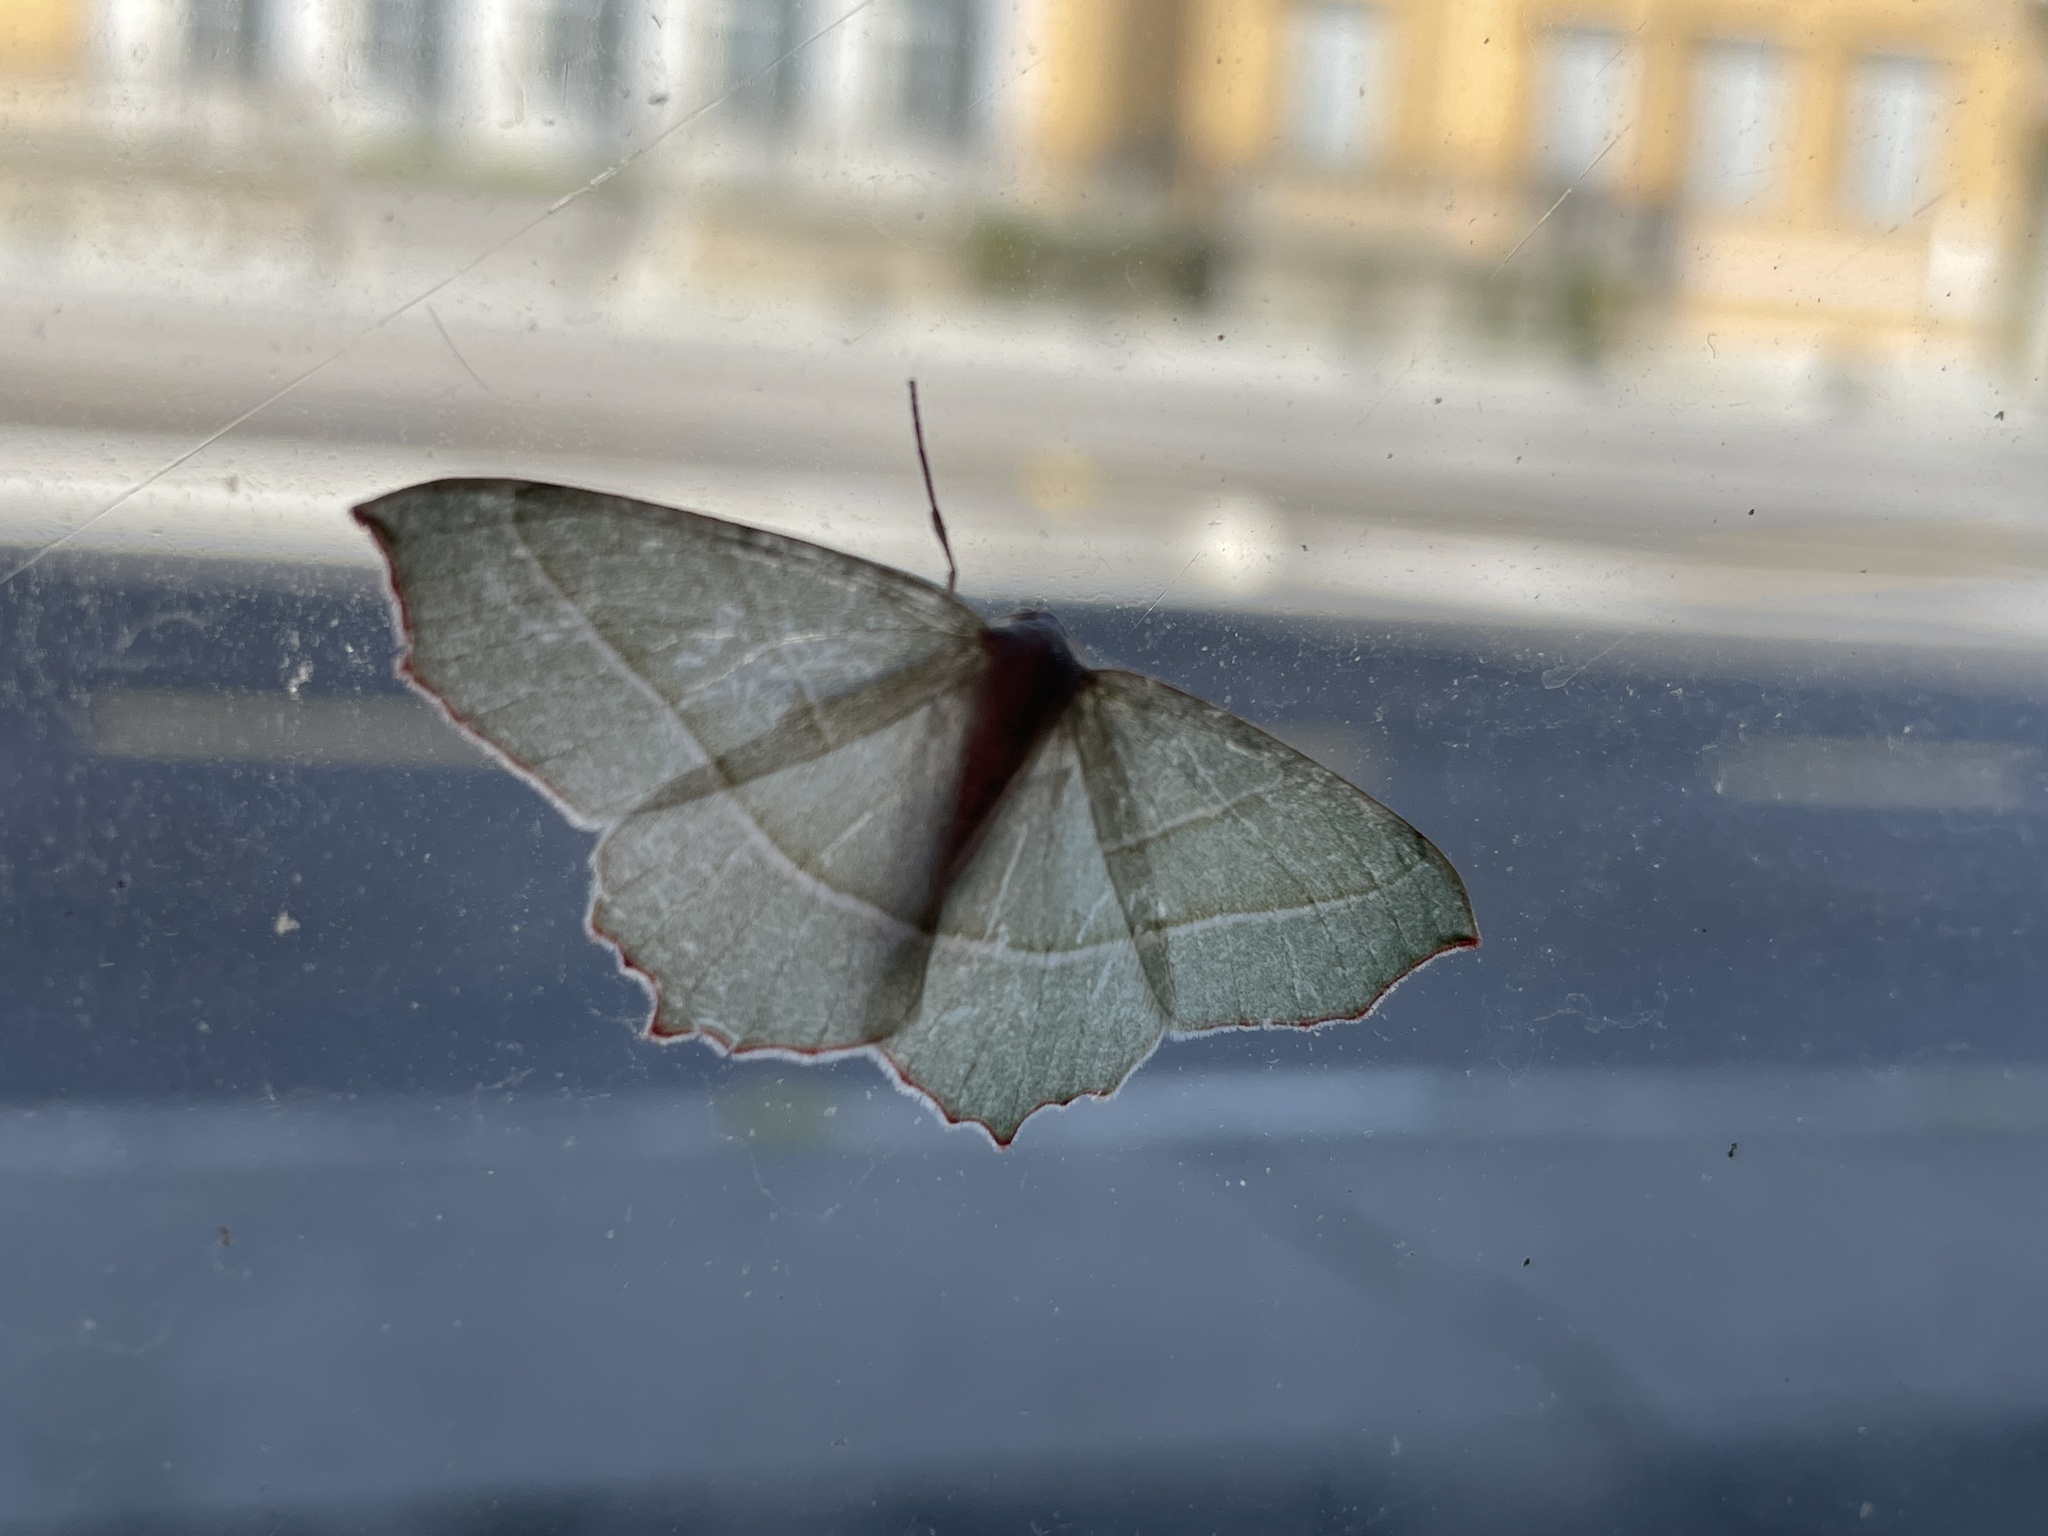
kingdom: Animalia
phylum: Arthropoda
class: Insecta
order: Lepidoptera
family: Geometridae
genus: Campaea
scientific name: Campaea margaritaria
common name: Light emerald
